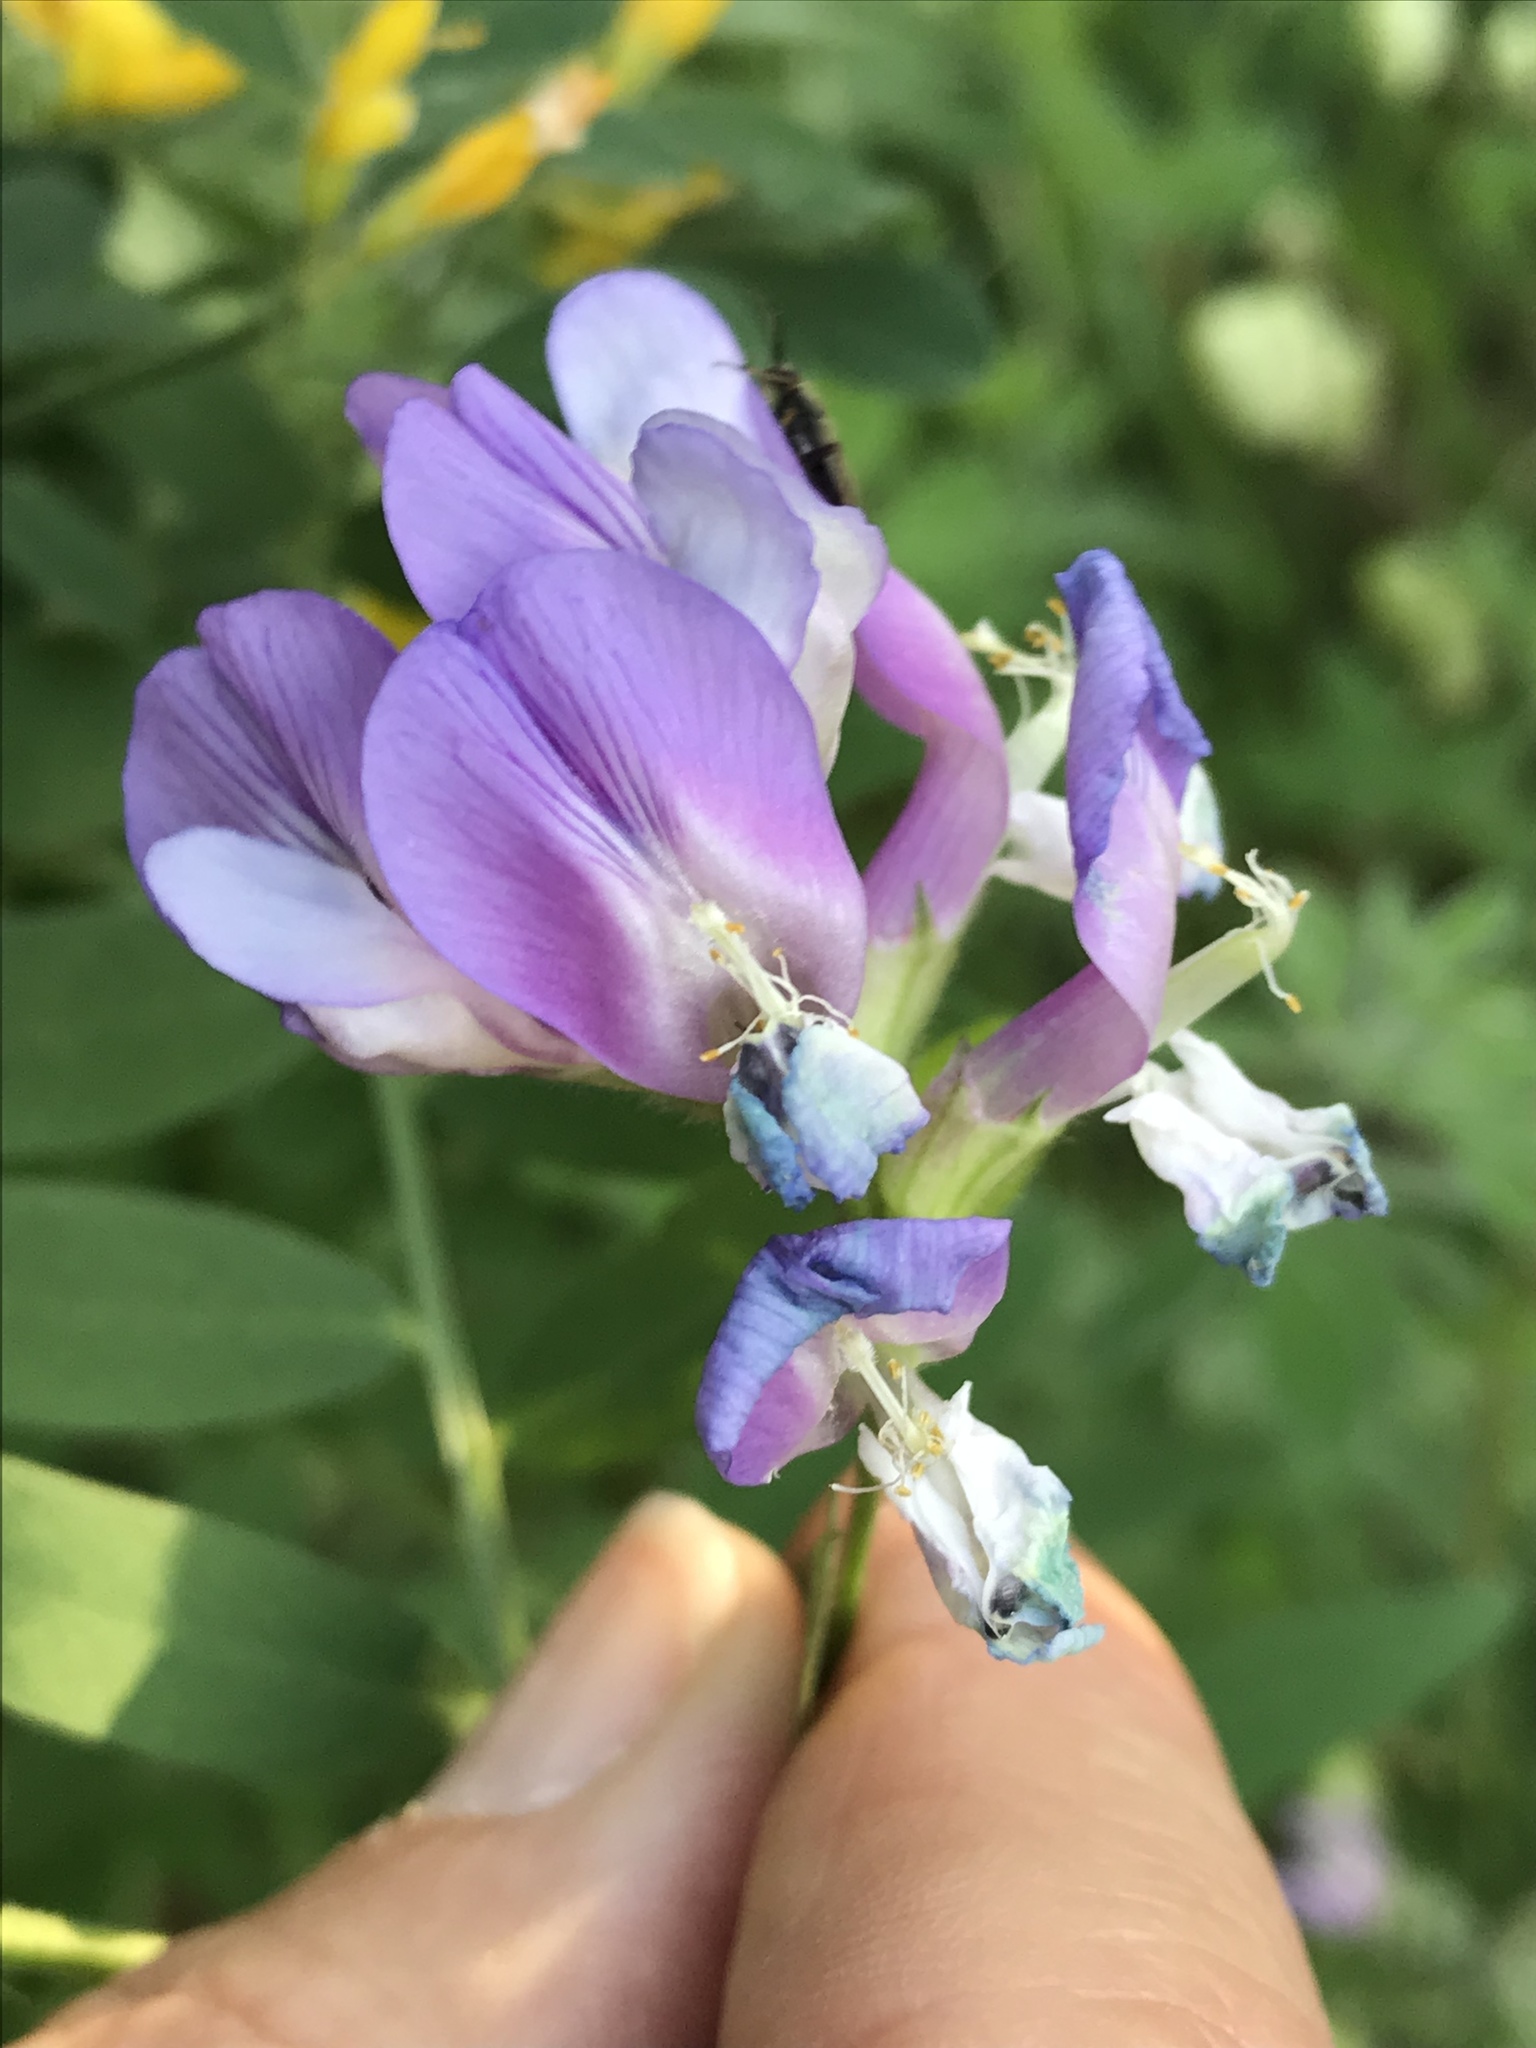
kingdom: Plantae
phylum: Tracheophyta
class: Magnoliopsida
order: Fabales
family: Fabaceae
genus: Vicia
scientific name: Vicia americana
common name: American vetch
